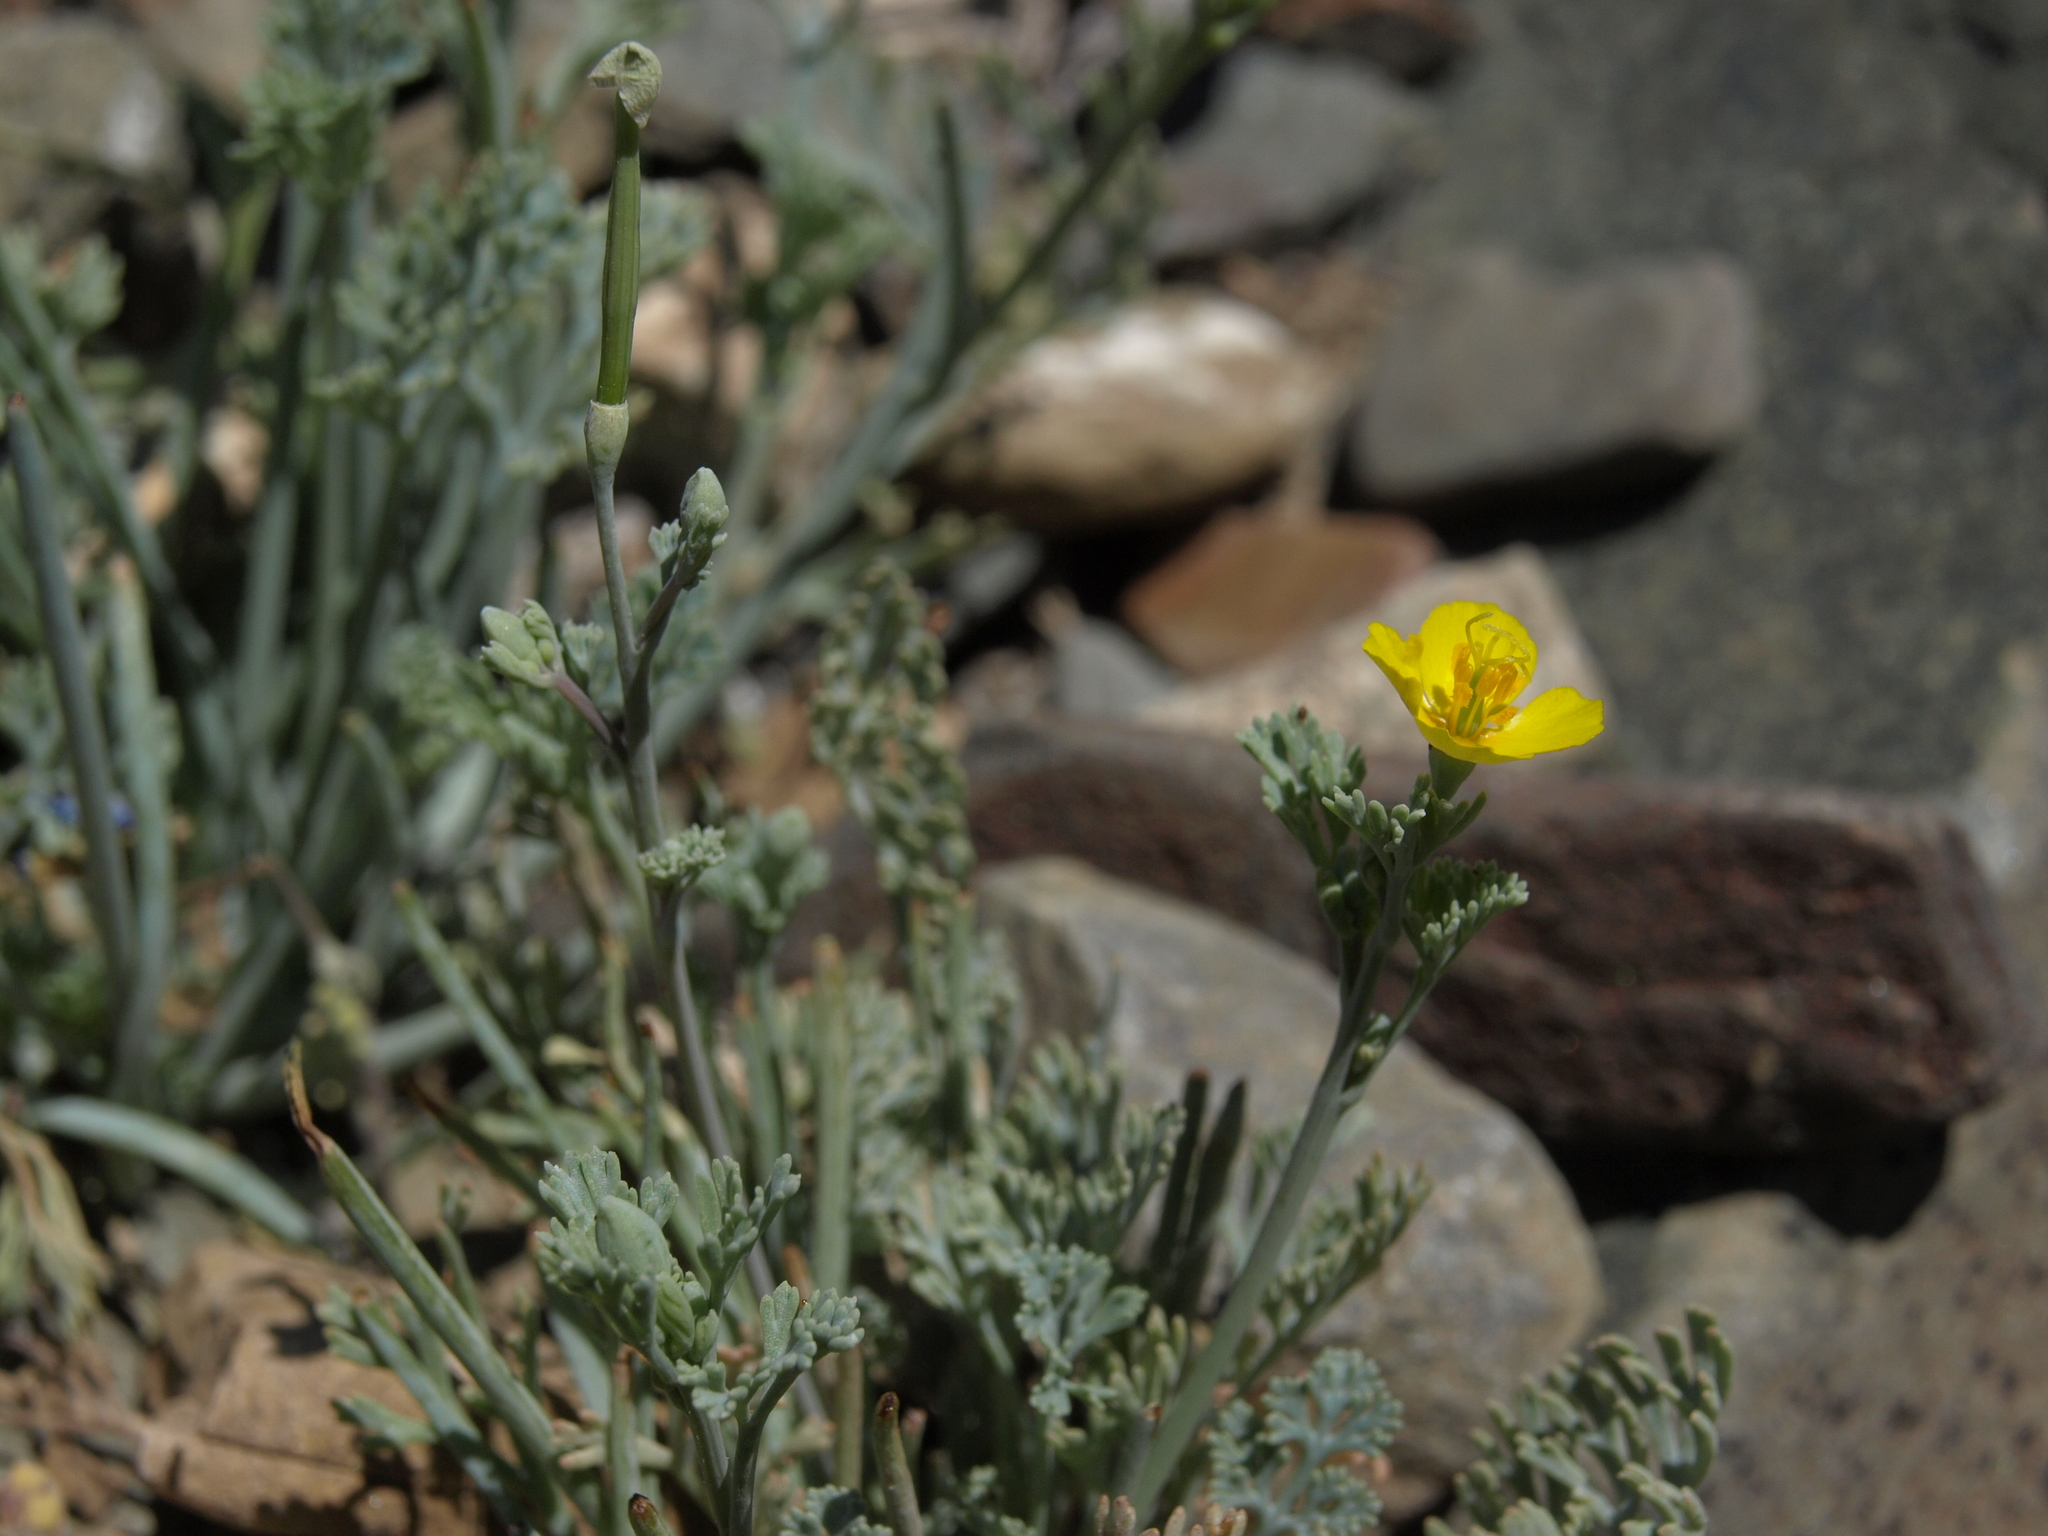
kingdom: Plantae
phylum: Tracheophyta
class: Magnoliopsida
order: Ranunculales
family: Papaveraceae
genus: Eschscholzia
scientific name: Eschscholzia minutiflora
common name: Small-flower california-poppy
